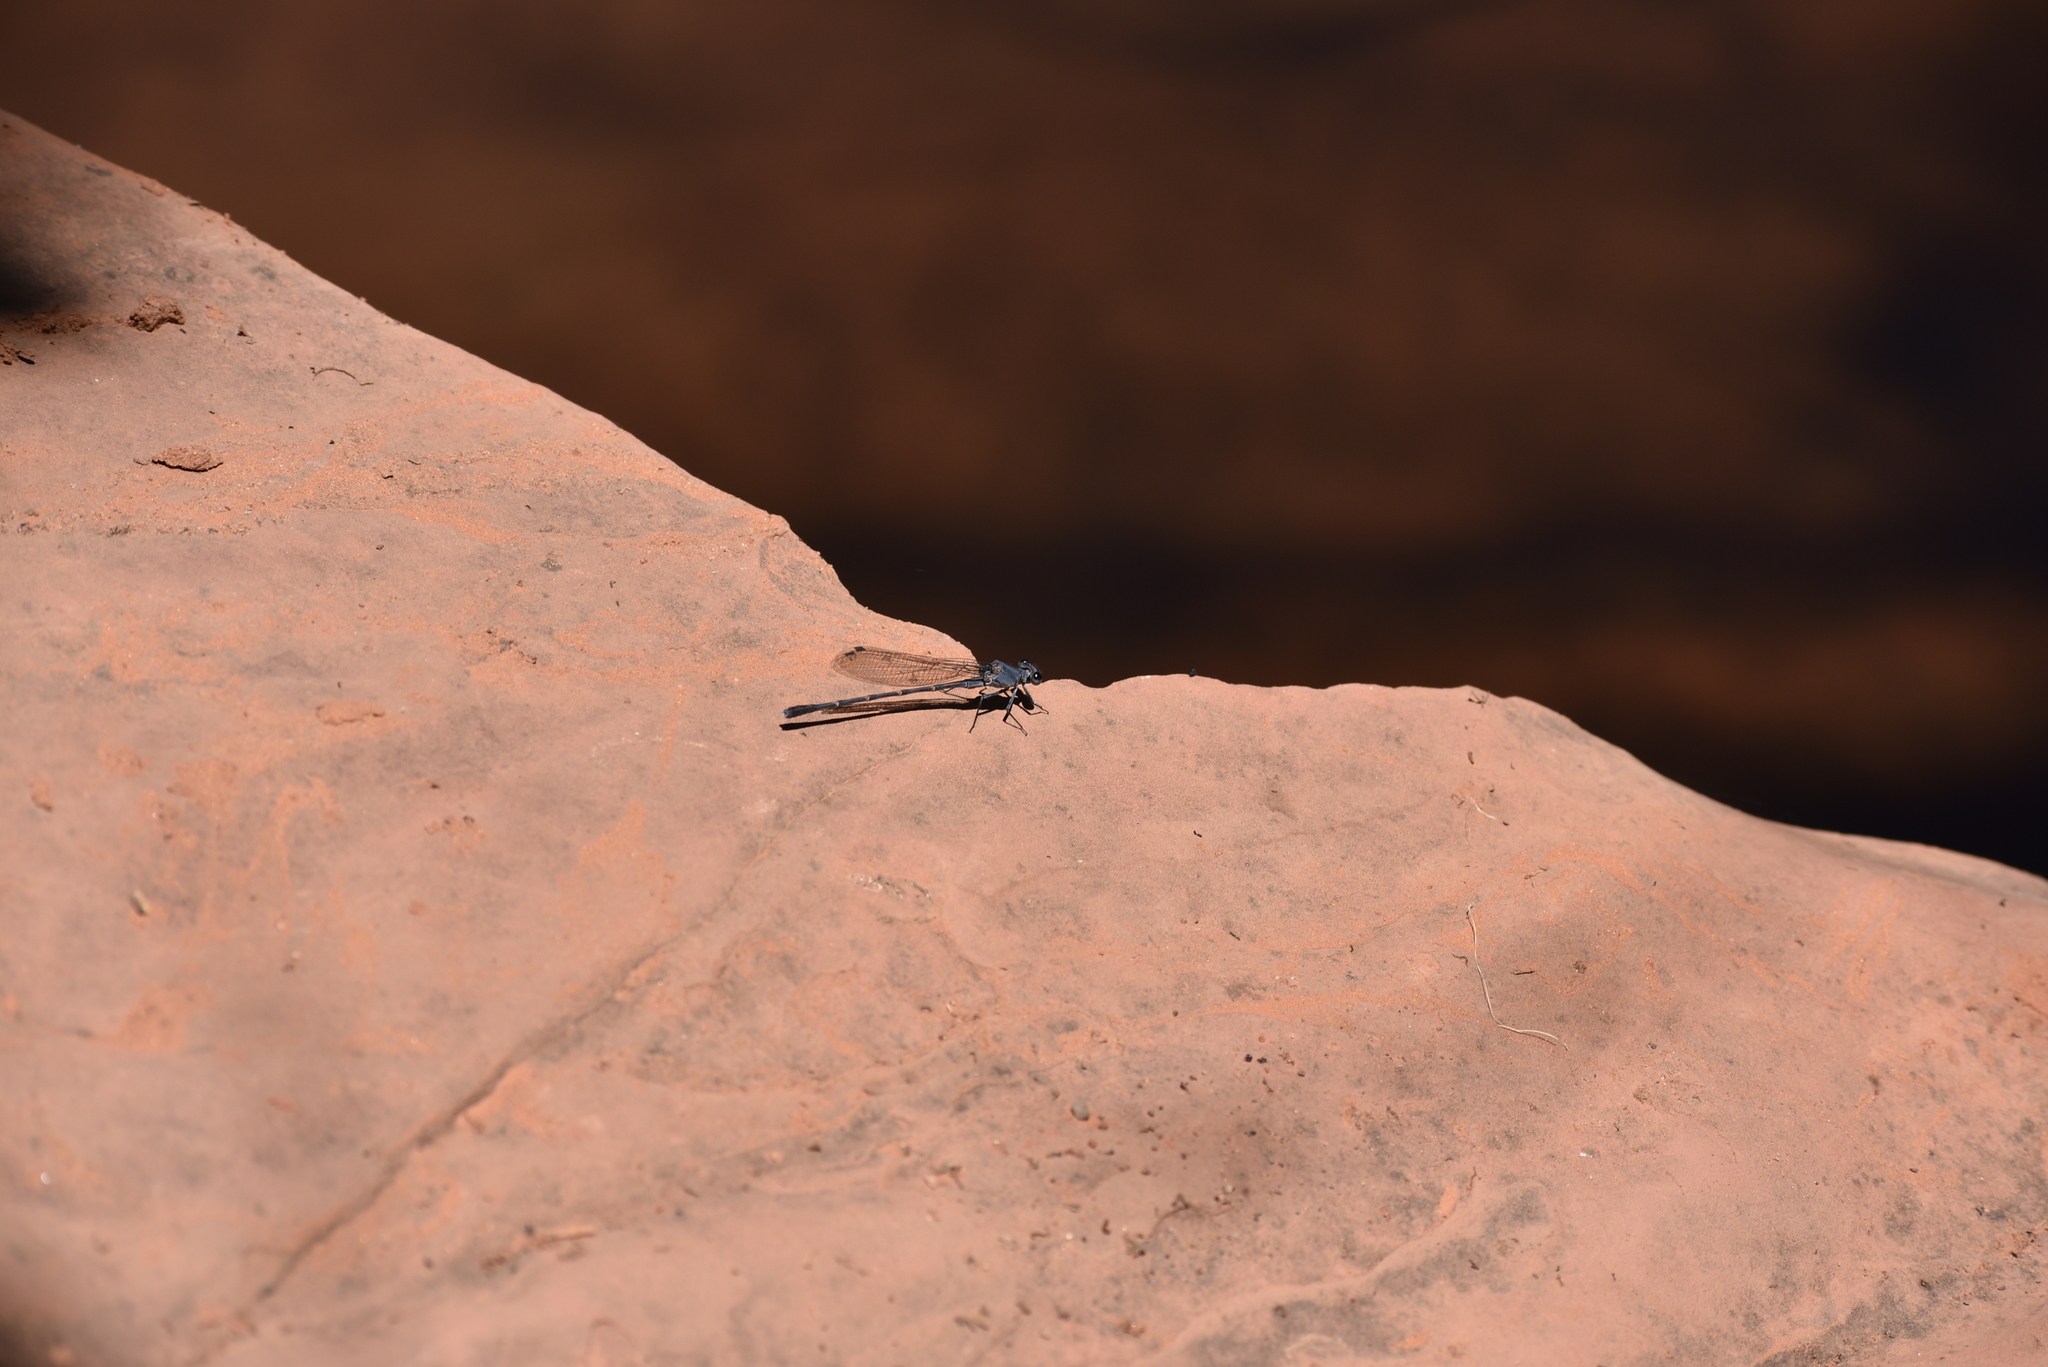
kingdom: Animalia
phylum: Arthropoda
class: Insecta
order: Odonata
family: Coenagrionidae
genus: Argia
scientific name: Argia lugens
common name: Sooty dancer
